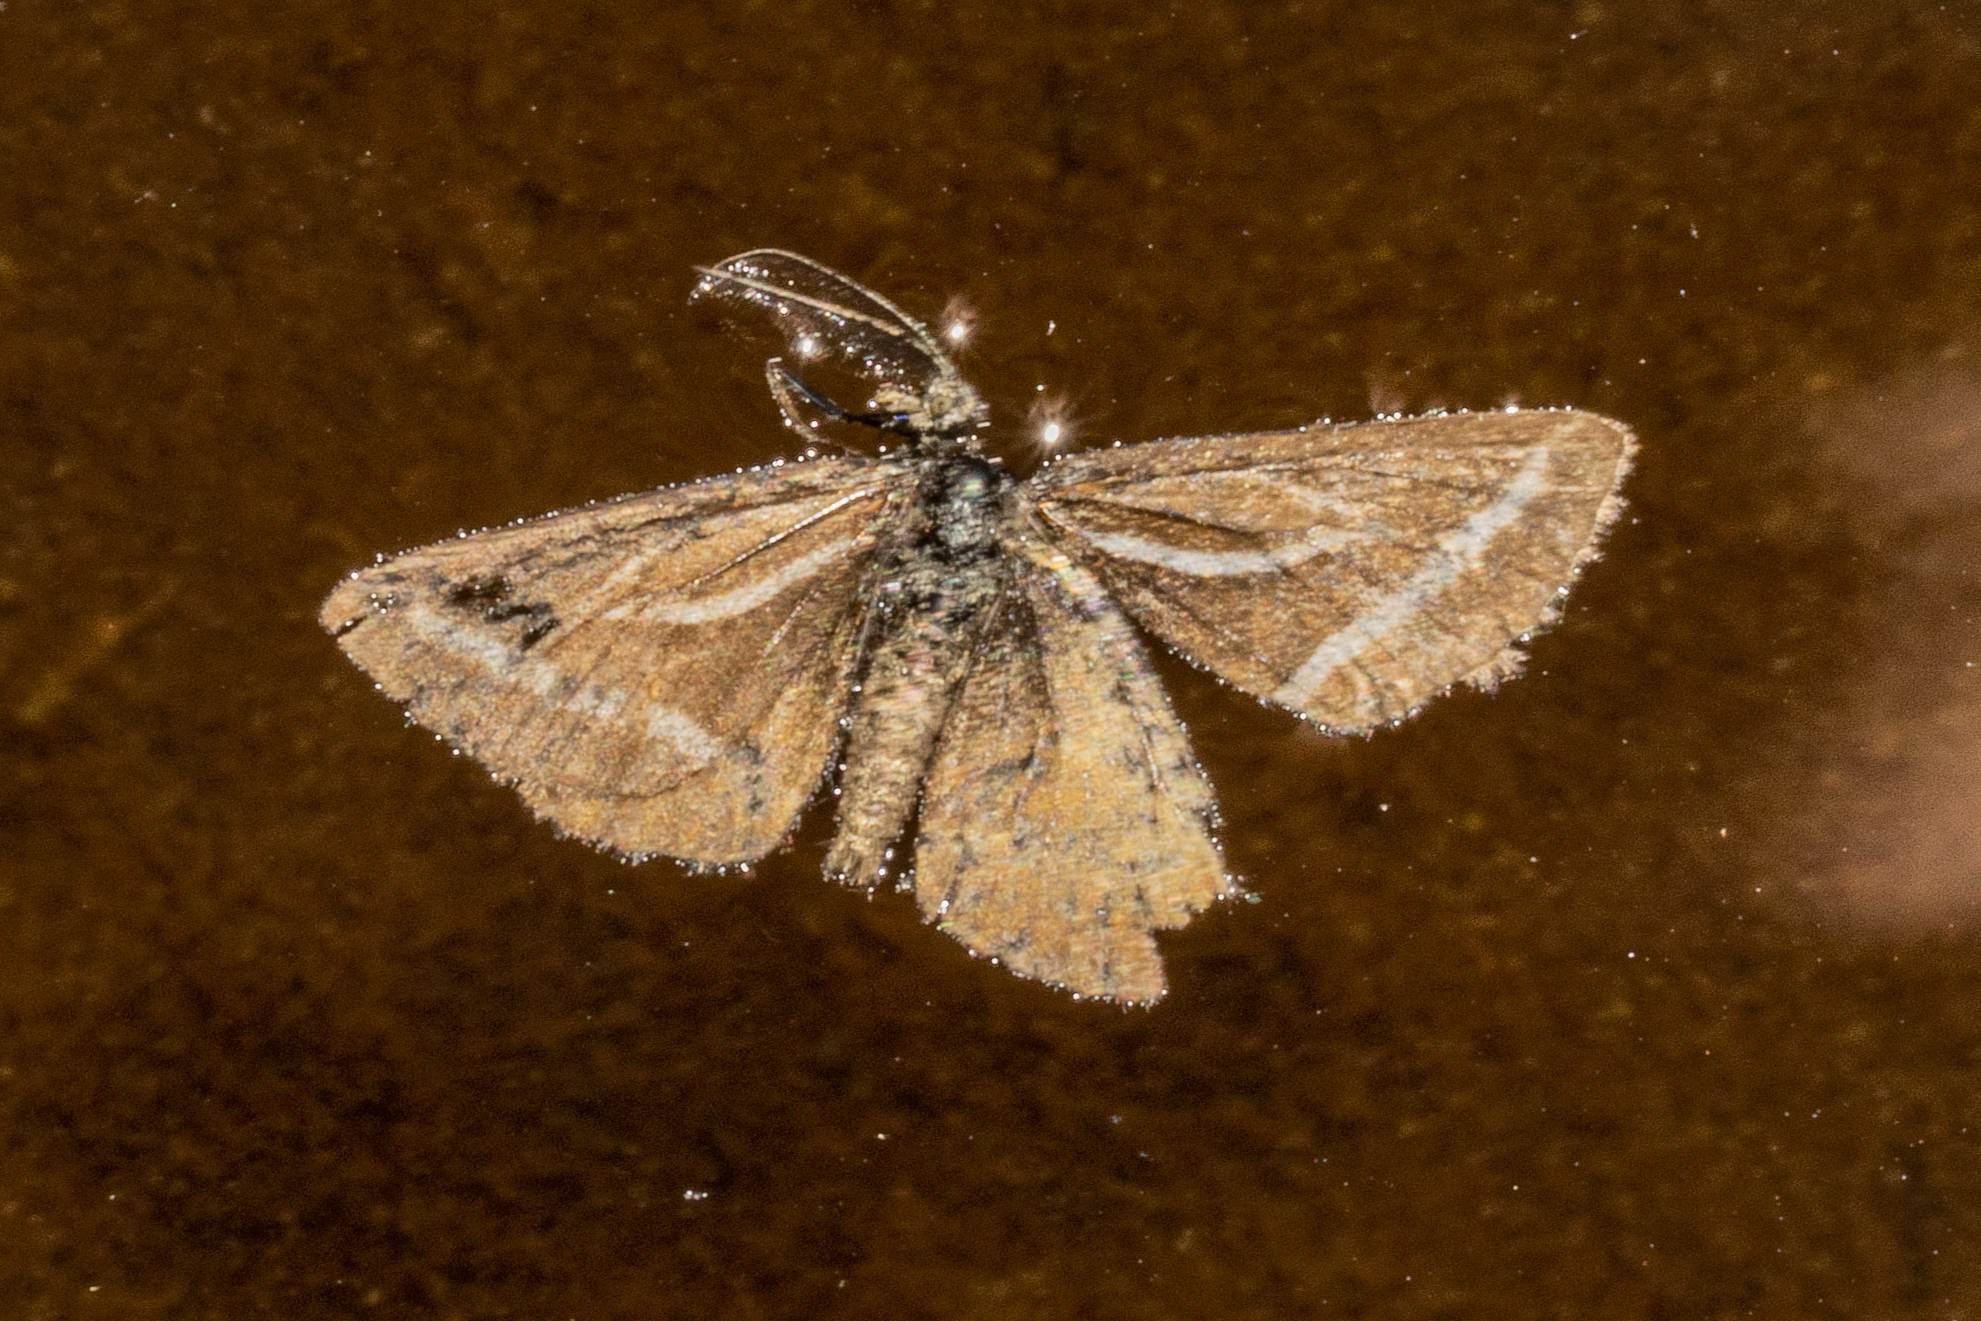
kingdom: Animalia
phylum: Arthropoda
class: Insecta
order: Lepidoptera
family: Geometridae
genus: Aponotoreas
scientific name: Aponotoreas insignis
